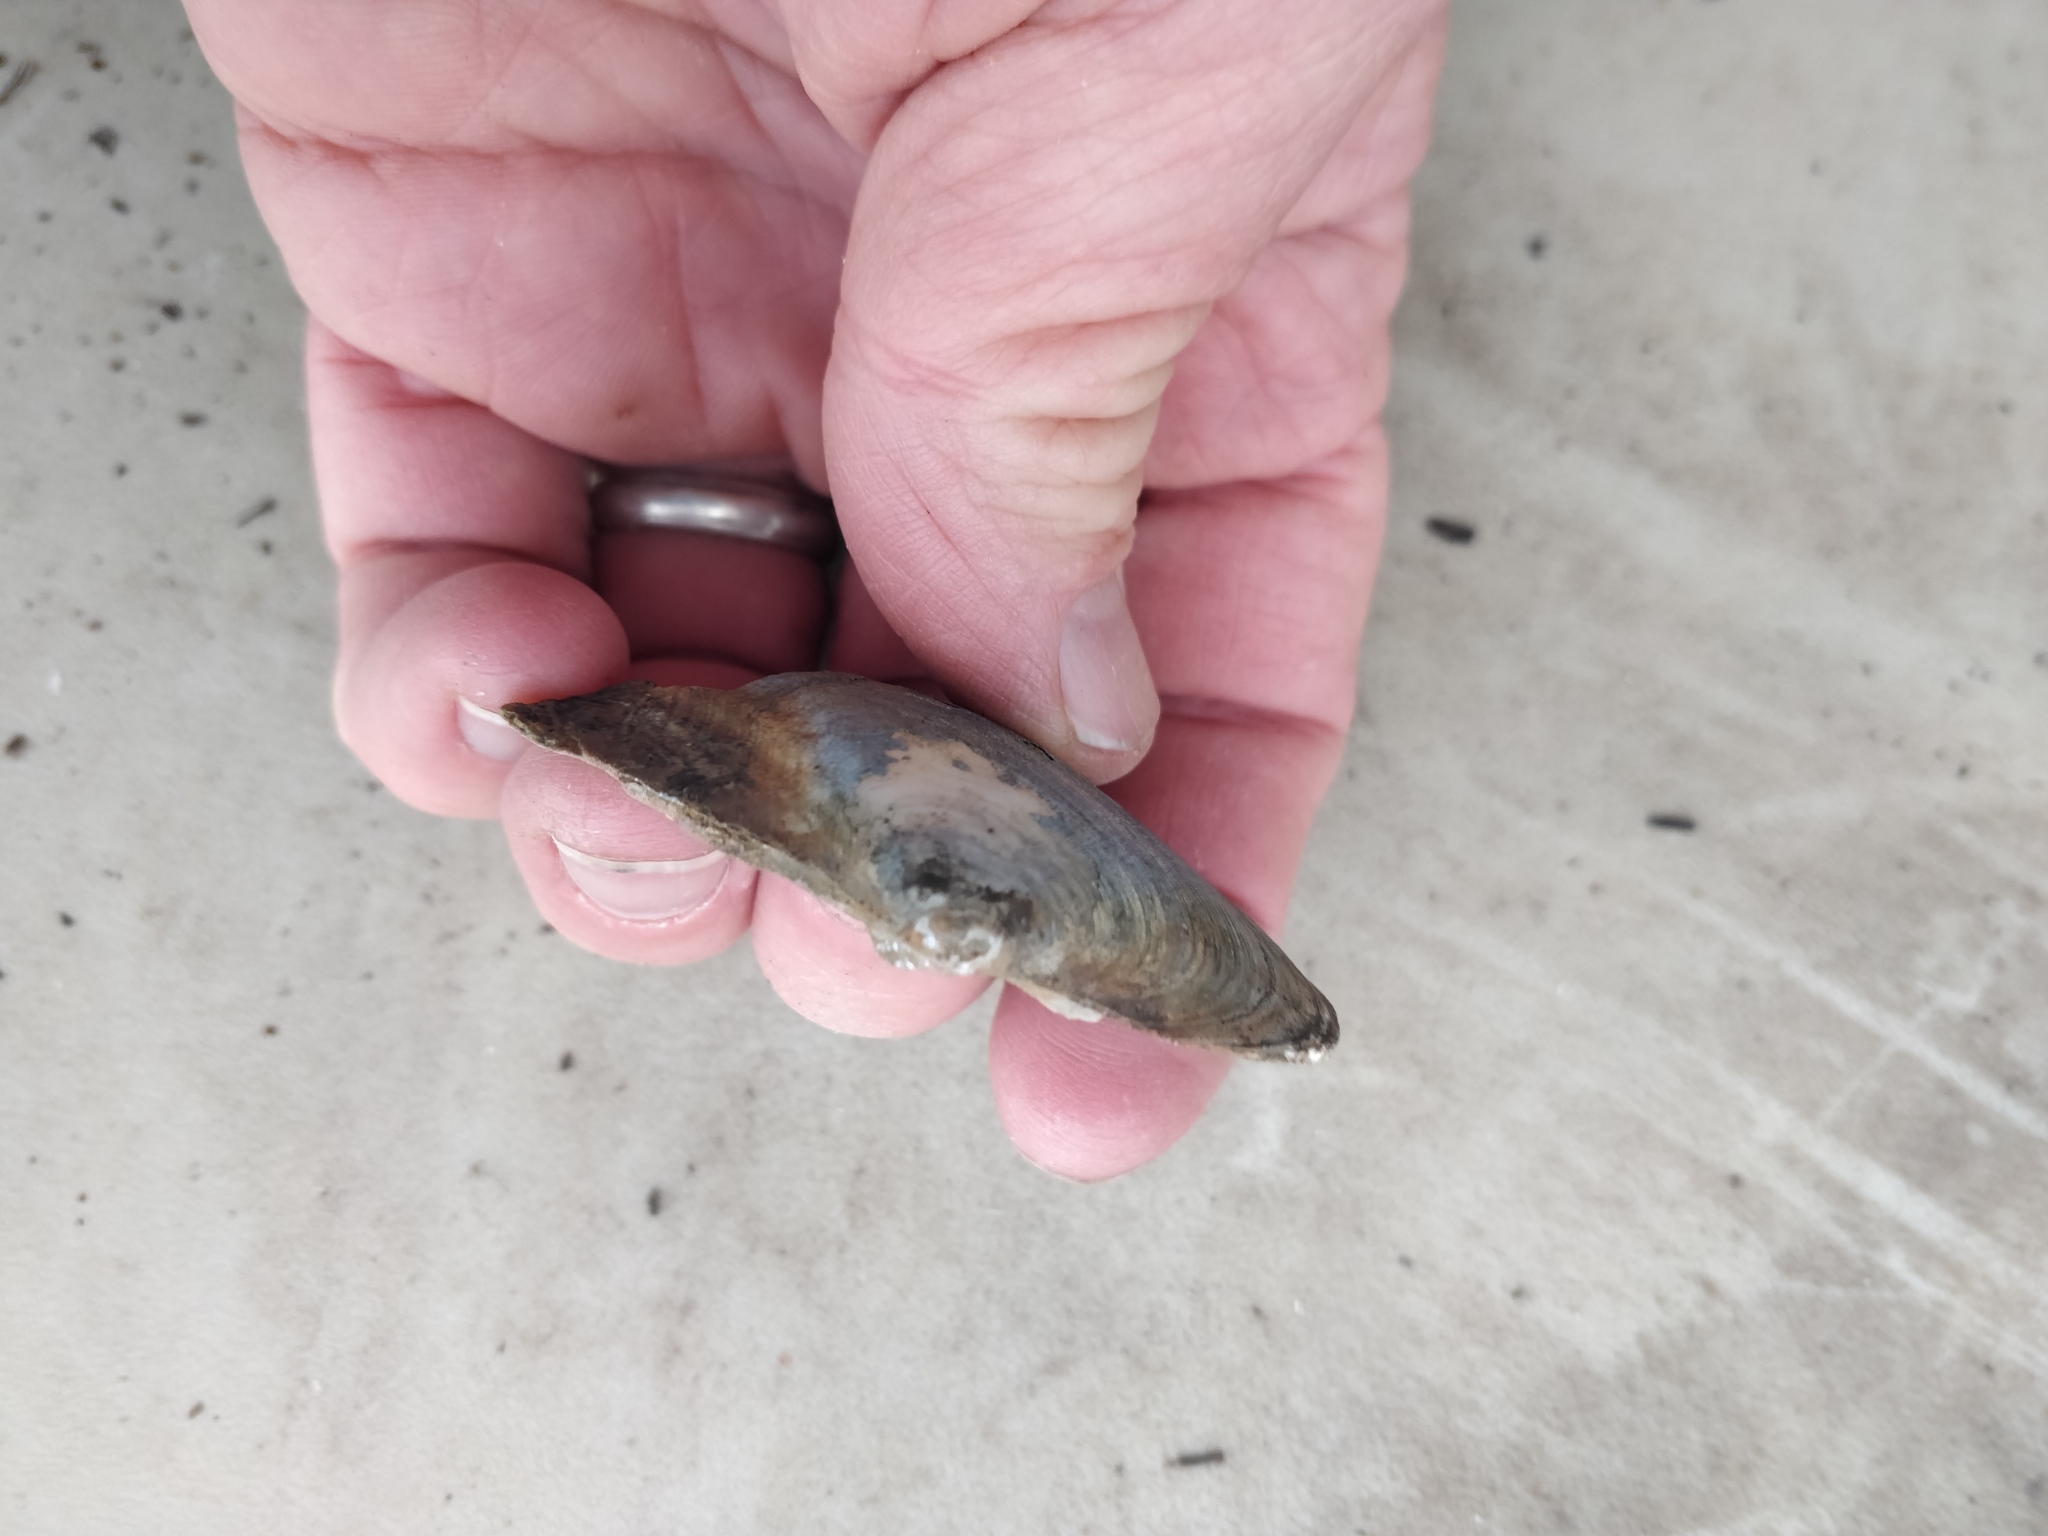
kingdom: Animalia
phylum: Mollusca
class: Bivalvia
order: Unionida
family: Unionidae
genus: Lasmigona
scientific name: Lasmigona complanata
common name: White heelsplitter
